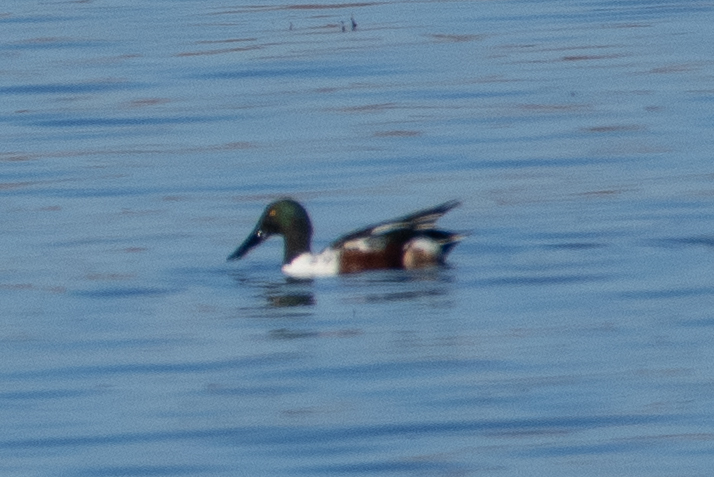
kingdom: Animalia
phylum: Chordata
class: Aves
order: Anseriformes
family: Anatidae
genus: Spatula
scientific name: Spatula clypeata
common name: Northern shoveler
